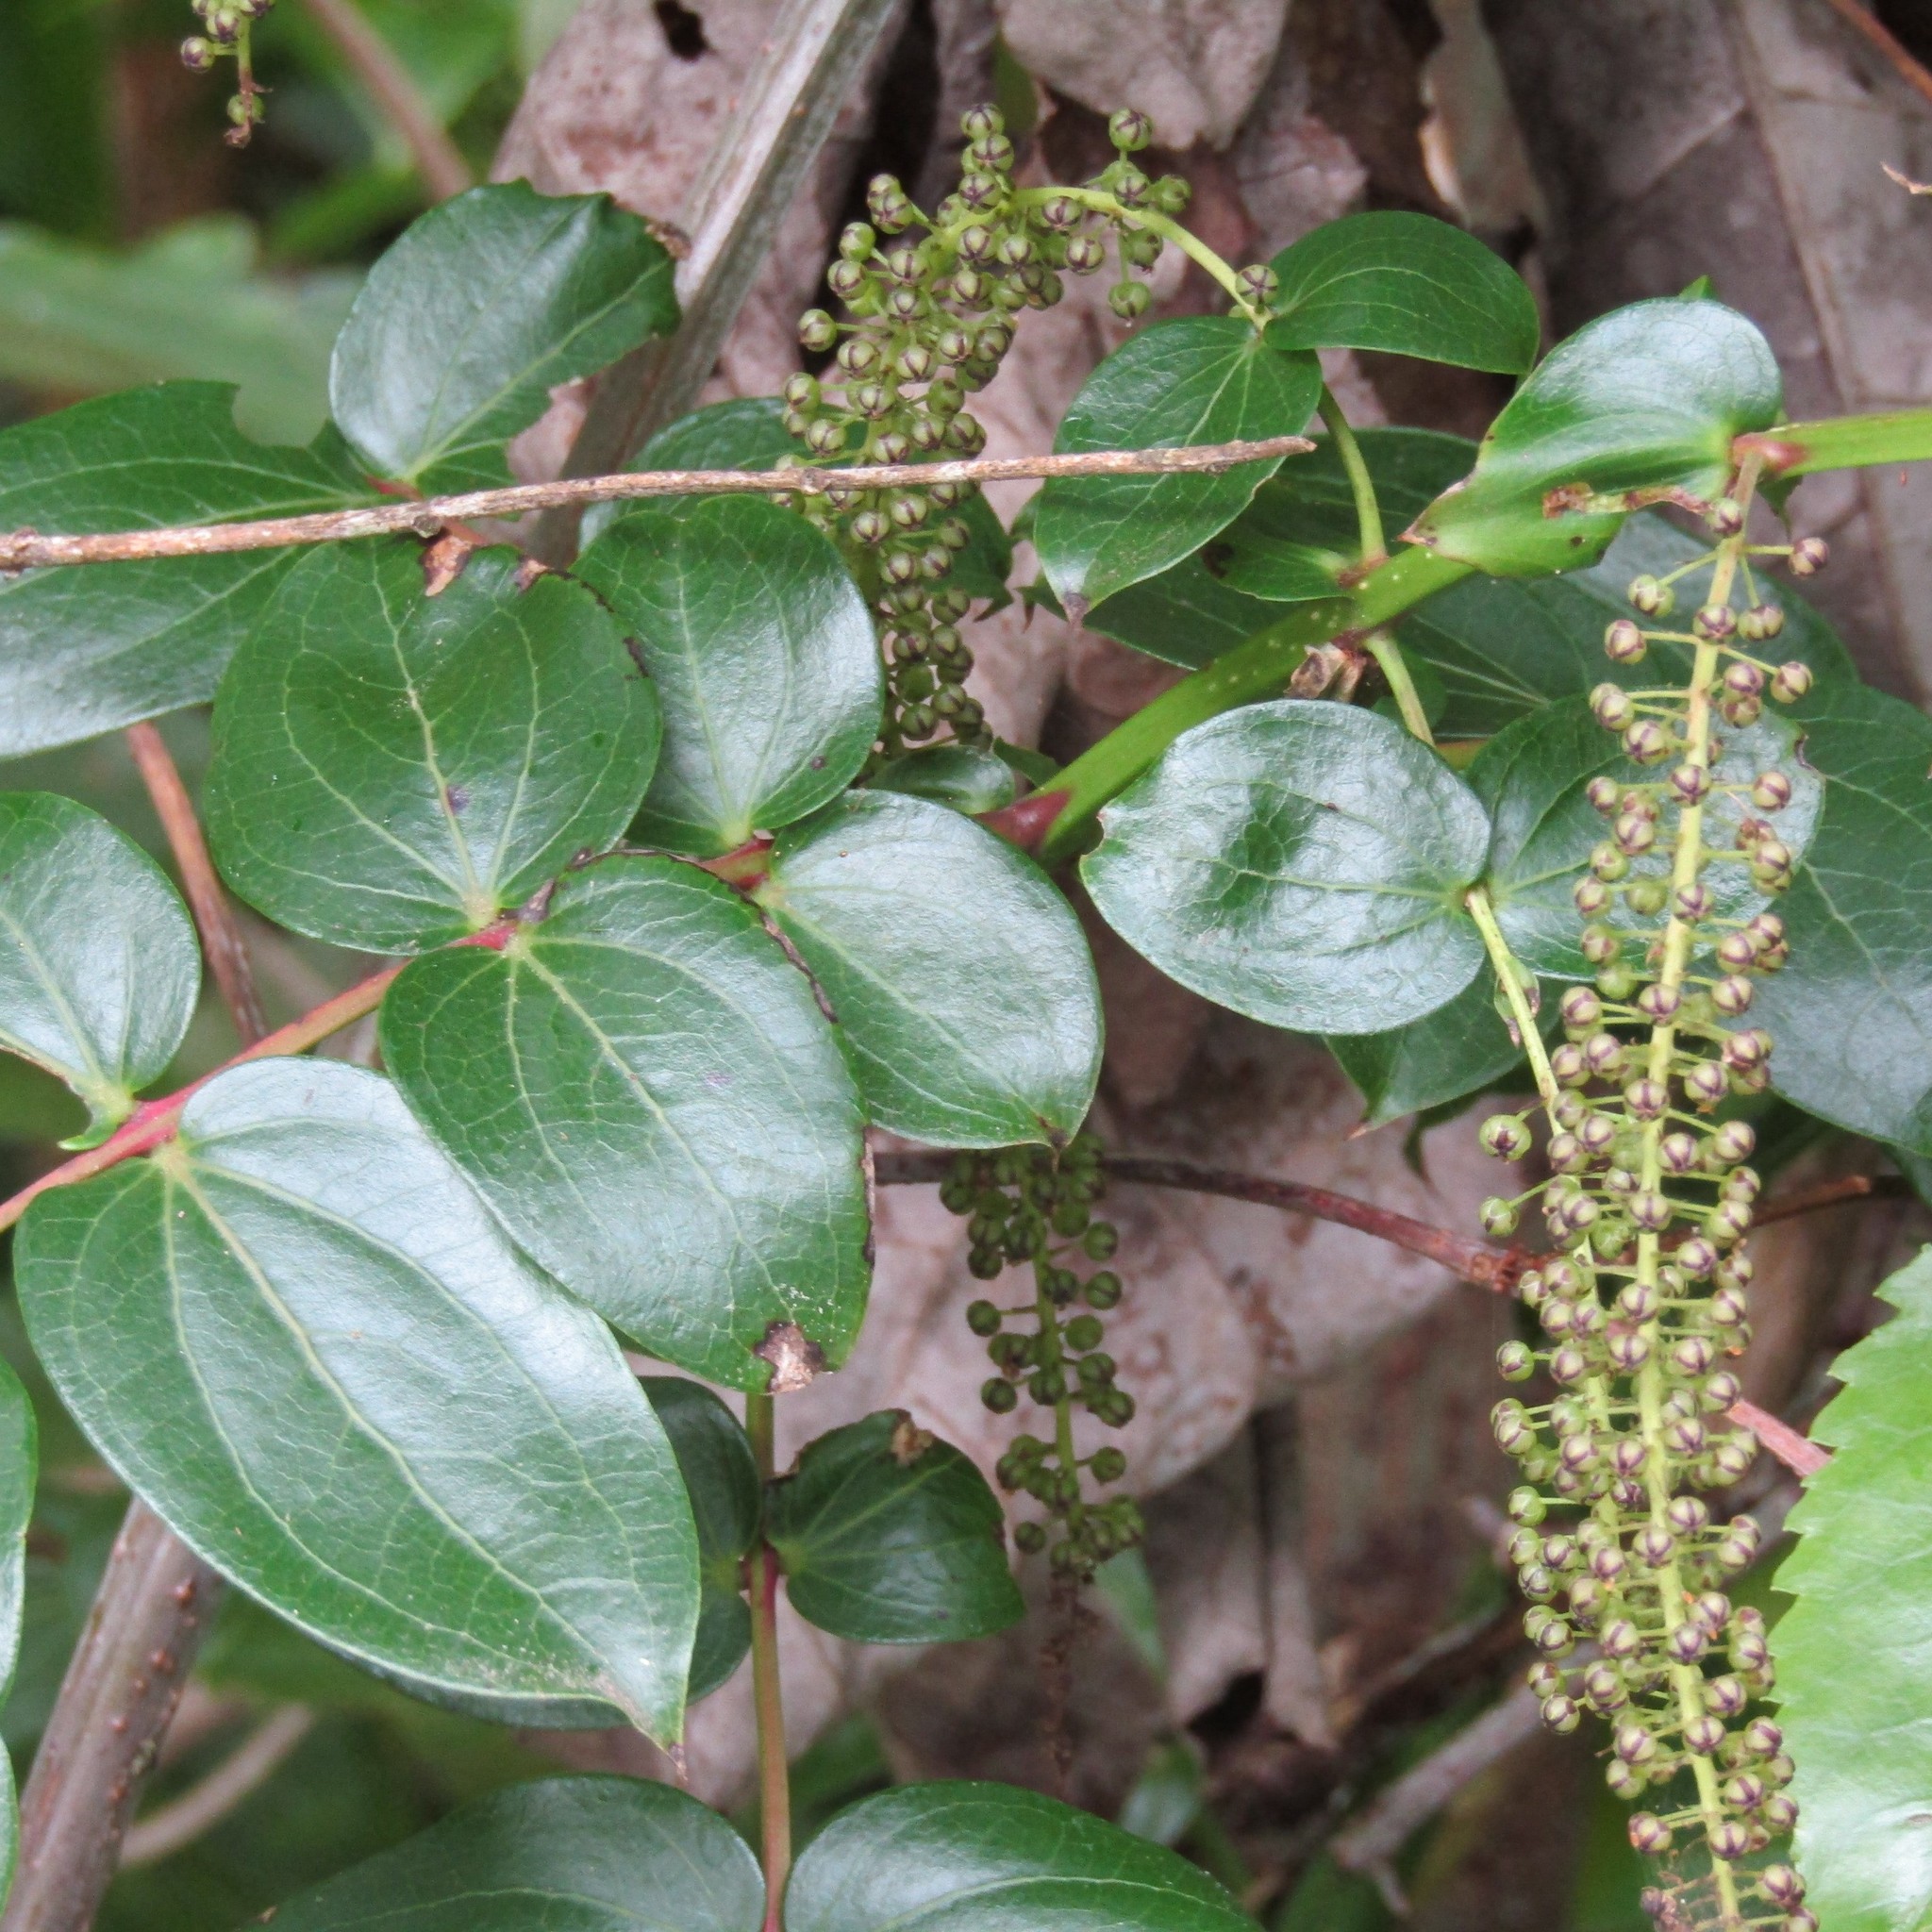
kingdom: Plantae
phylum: Tracheophyta
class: Magnoliopsida
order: Cucurbitales
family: Coriariaceae
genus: Coriaria
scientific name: Coriaria arborea
